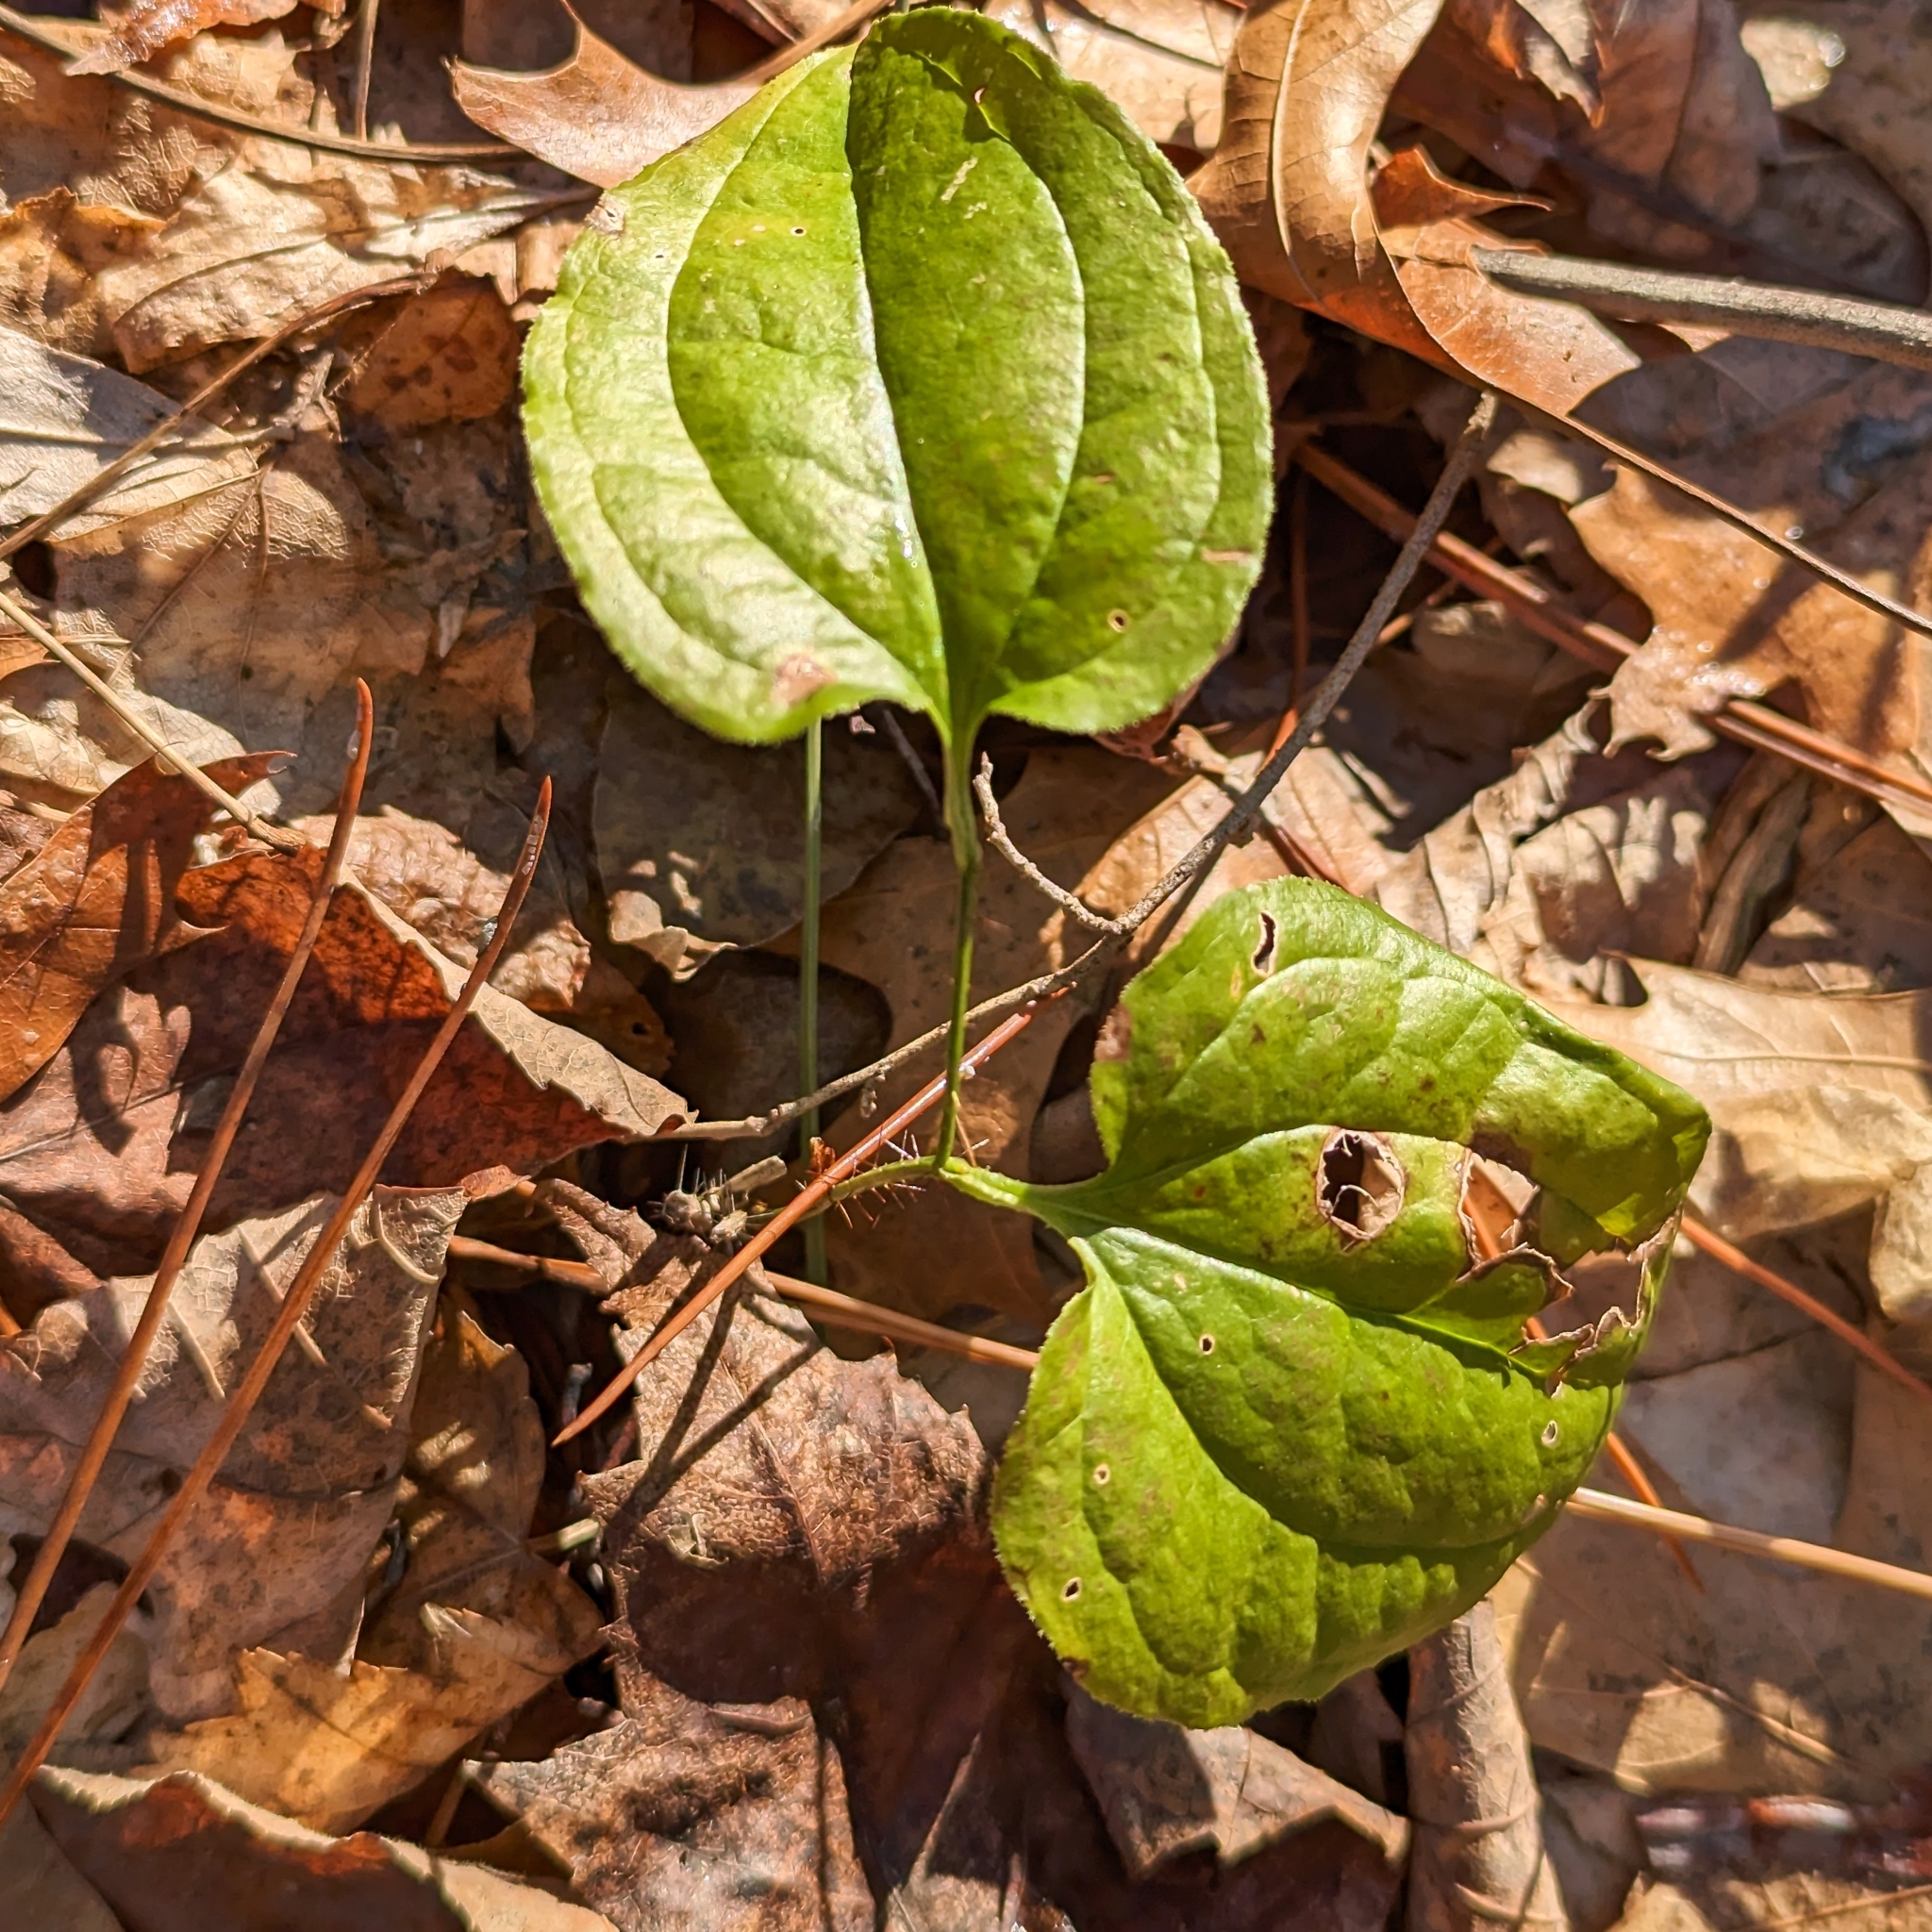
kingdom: Plantae
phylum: Tracheophyta
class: Liliopsida
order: Liliales
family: Smilacaceae
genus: Smilax
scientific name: Smilax tamnoides
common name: Hellfetter
